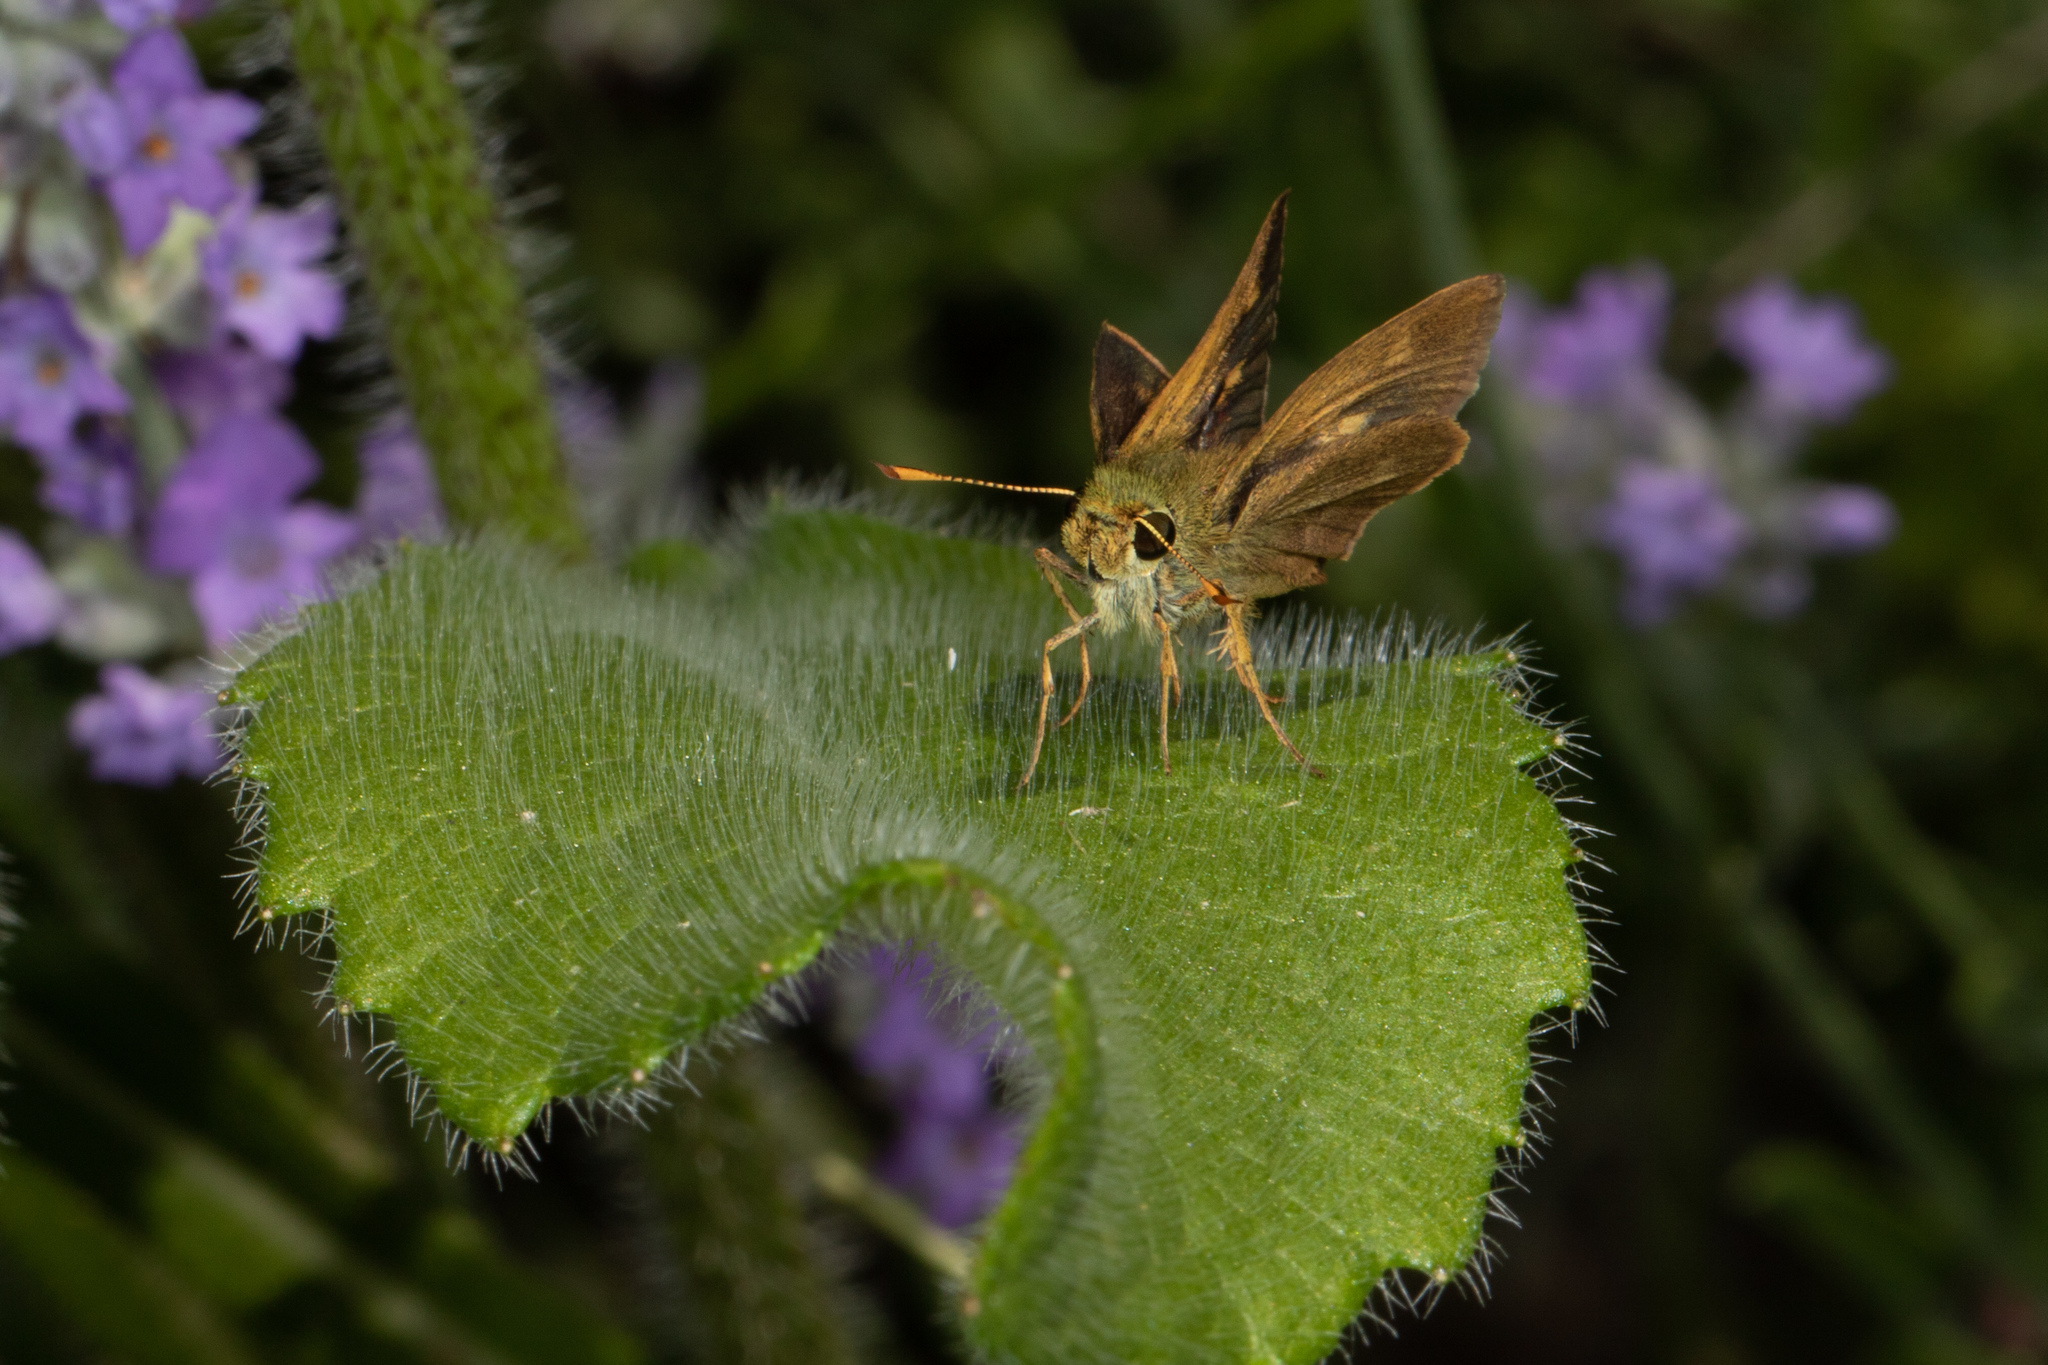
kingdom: Animalia
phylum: Arthropoda
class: Insecta
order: Lepidoptera
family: Hesperiidae
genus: Polites
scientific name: Polites egeremet
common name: Northern broken-dash
